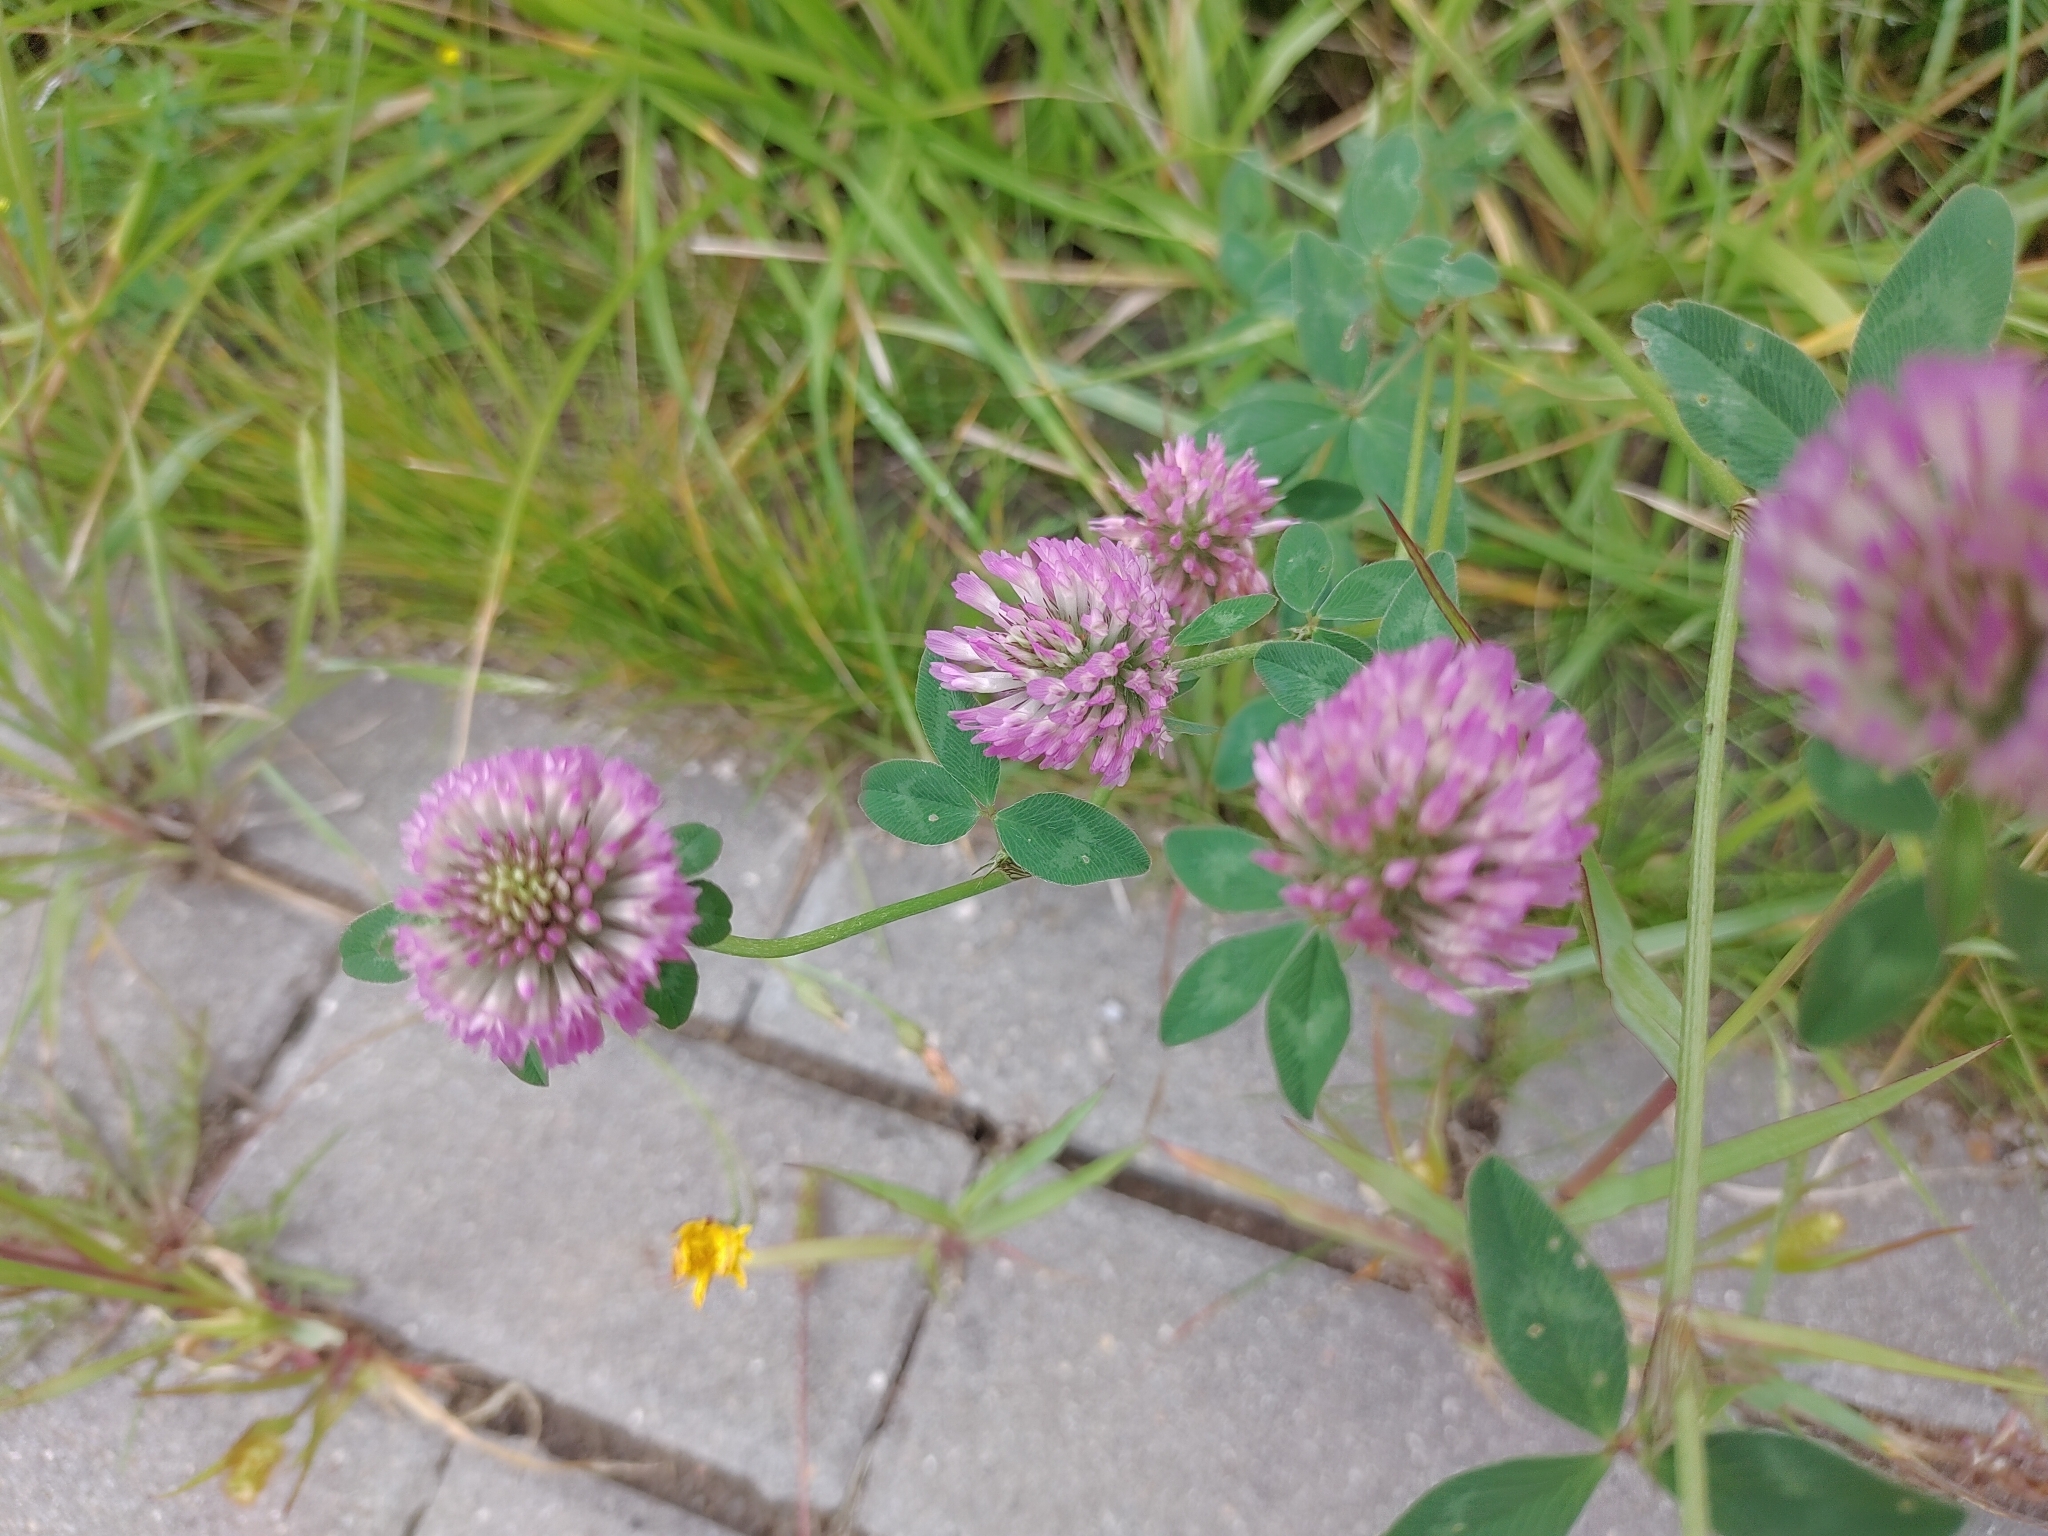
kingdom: Plantae
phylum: Tracheophyta
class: Magnoliopsida
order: Fabales
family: Fabaceae
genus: Trifolium
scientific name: Trifolium pratense
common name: Red clover
